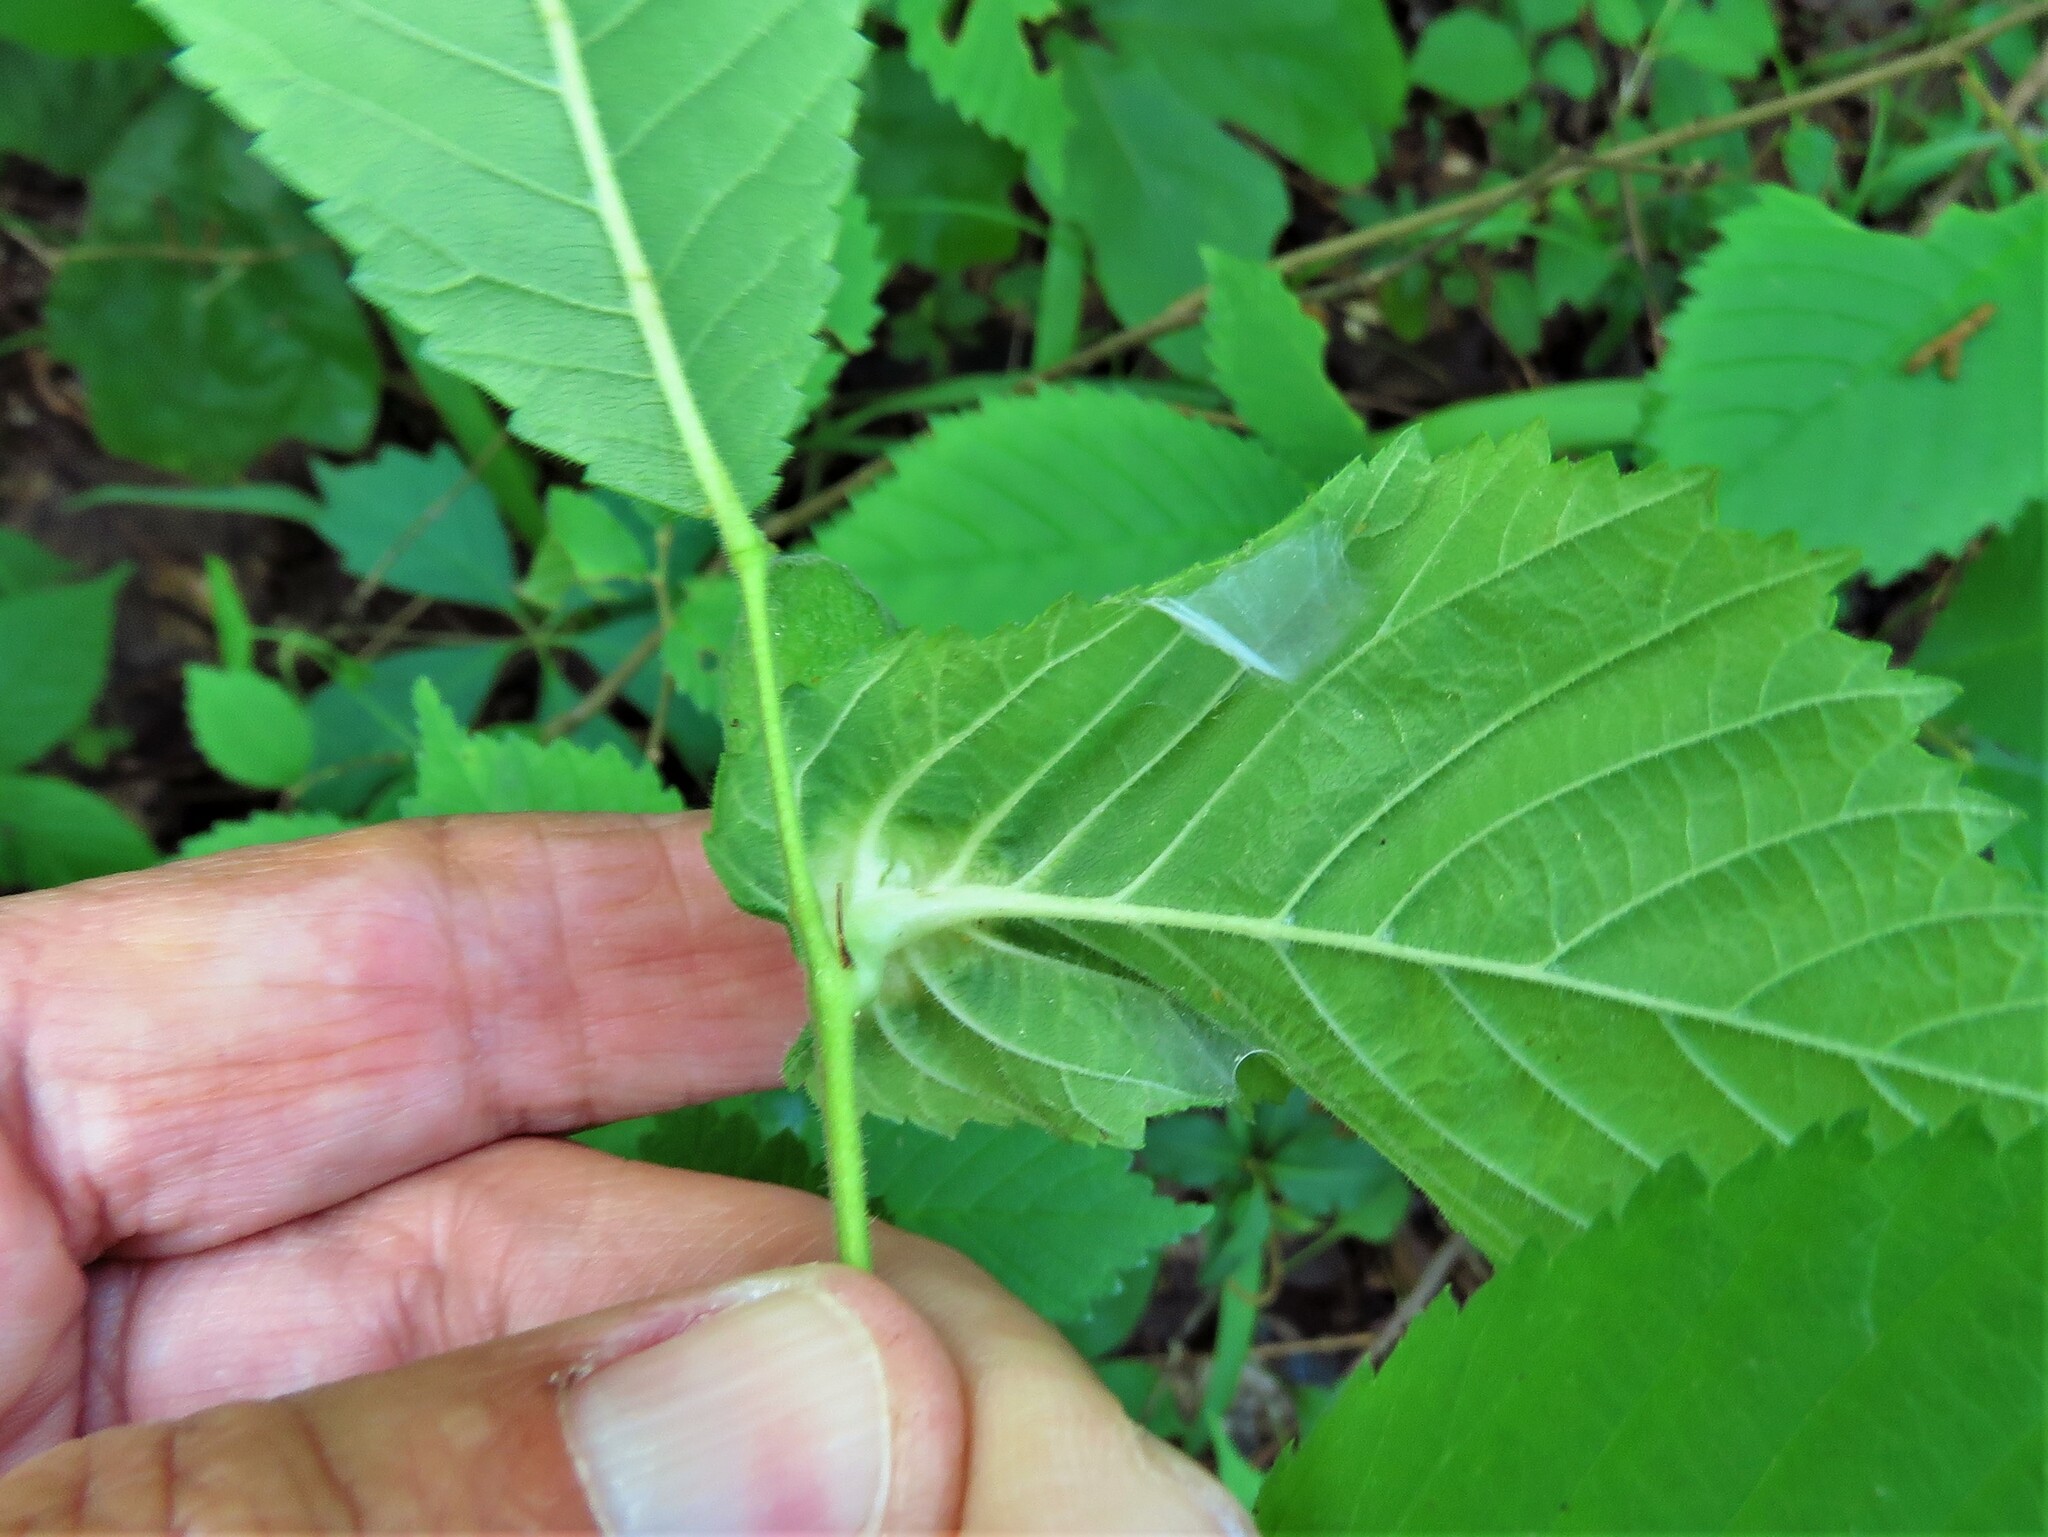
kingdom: Animalia
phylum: Arthropoda
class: Insecta
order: Hemiptera
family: Aphididae
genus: Kaltenbachiella
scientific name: Kaltenbachiella ulmifusa
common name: Elm pouchgall aphid
